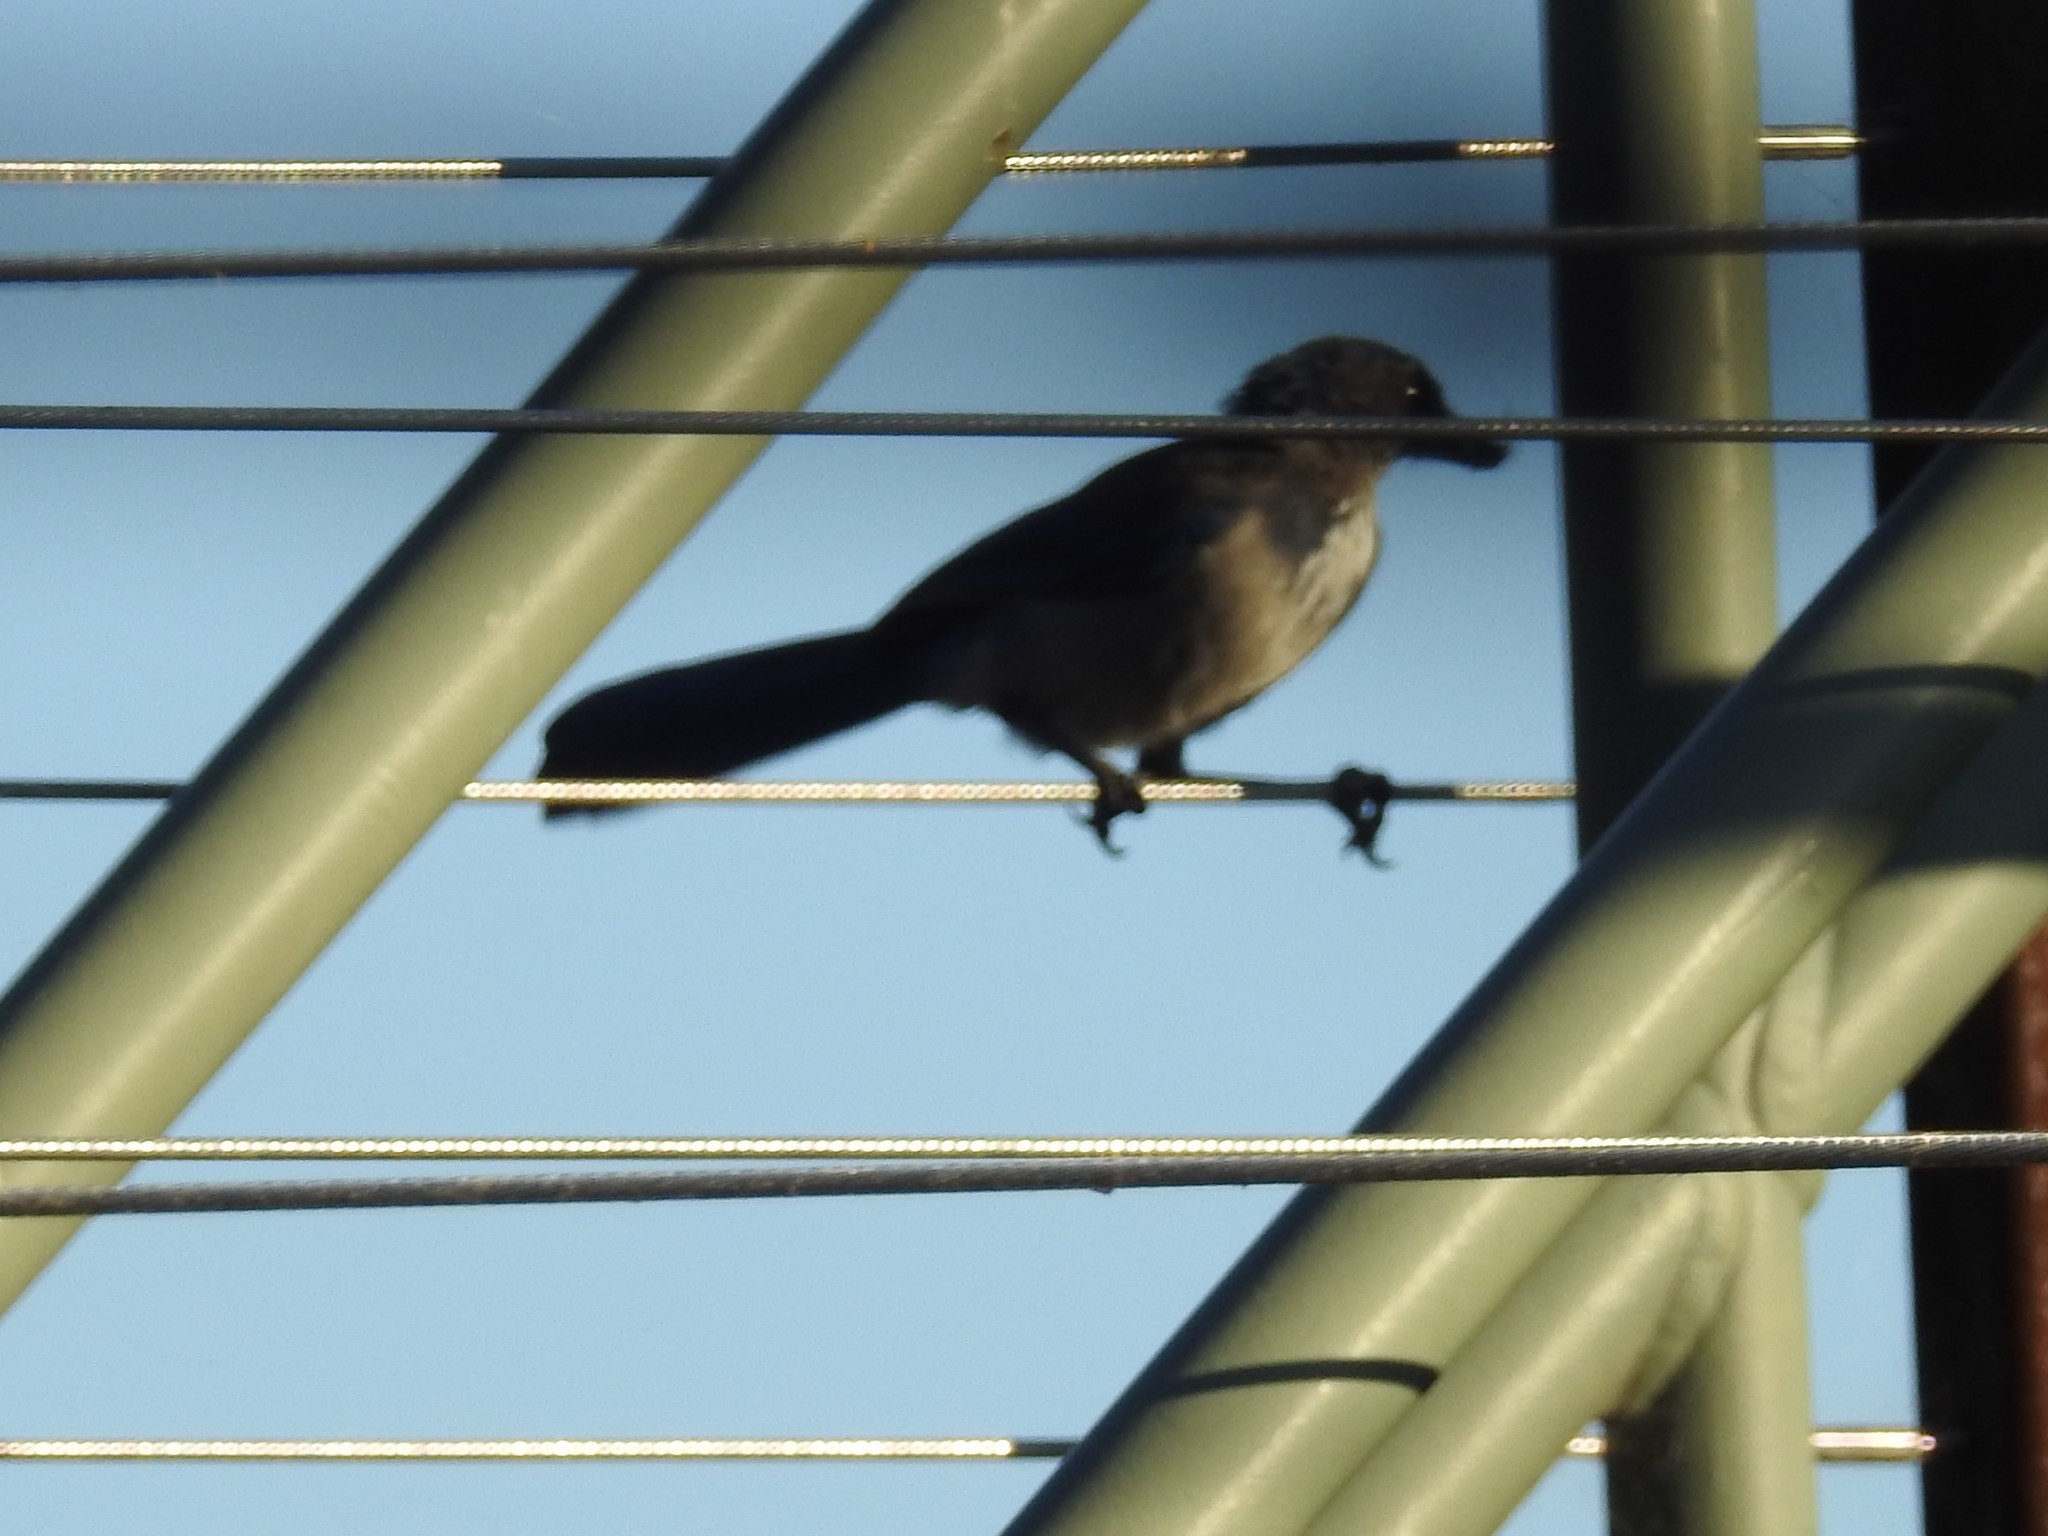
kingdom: Animalia
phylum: Chordata
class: Aves
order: Passeriformes
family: Corvidae
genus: Aphelocoma
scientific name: Aphelocoma californica
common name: California scrub-jay
